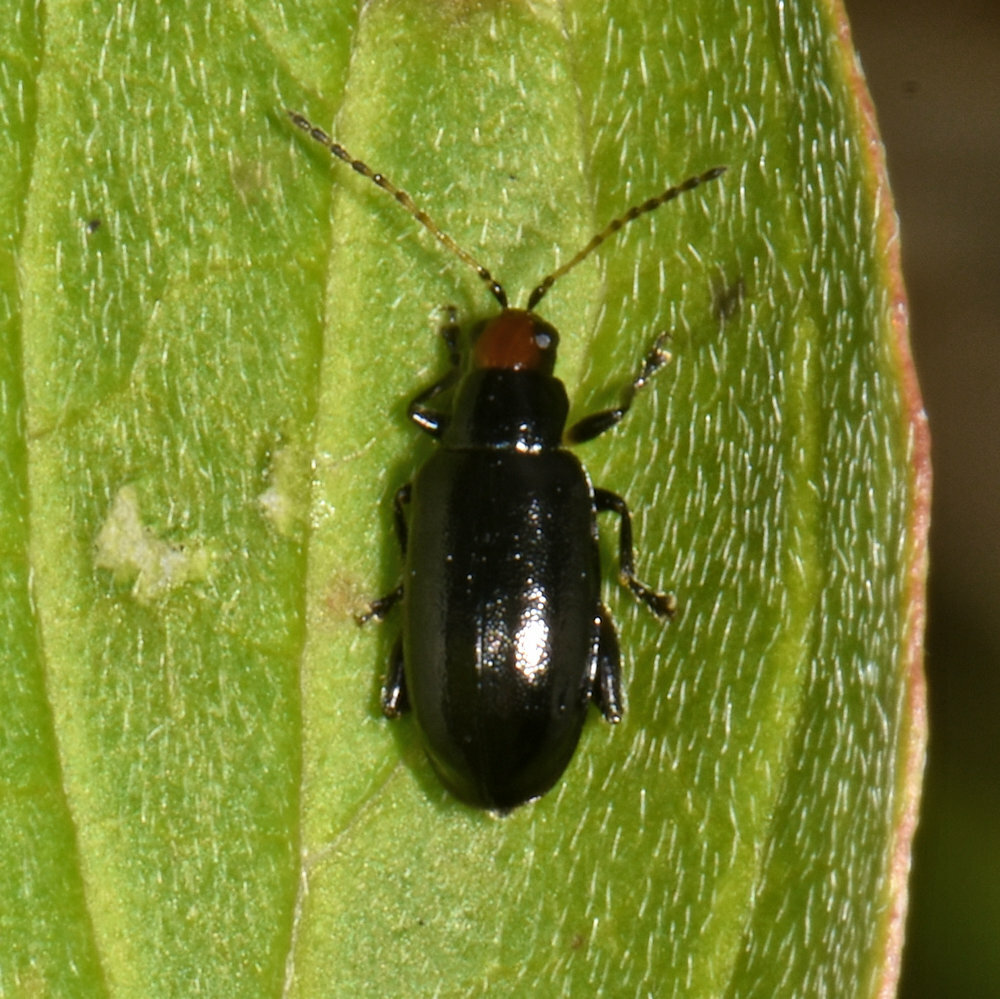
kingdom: Animalia
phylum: Arthropoda
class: Insecta
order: Coleoptera
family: Chrysomelidae
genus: Systena
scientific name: Systena frontalis
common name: Red-headed flea beetle
